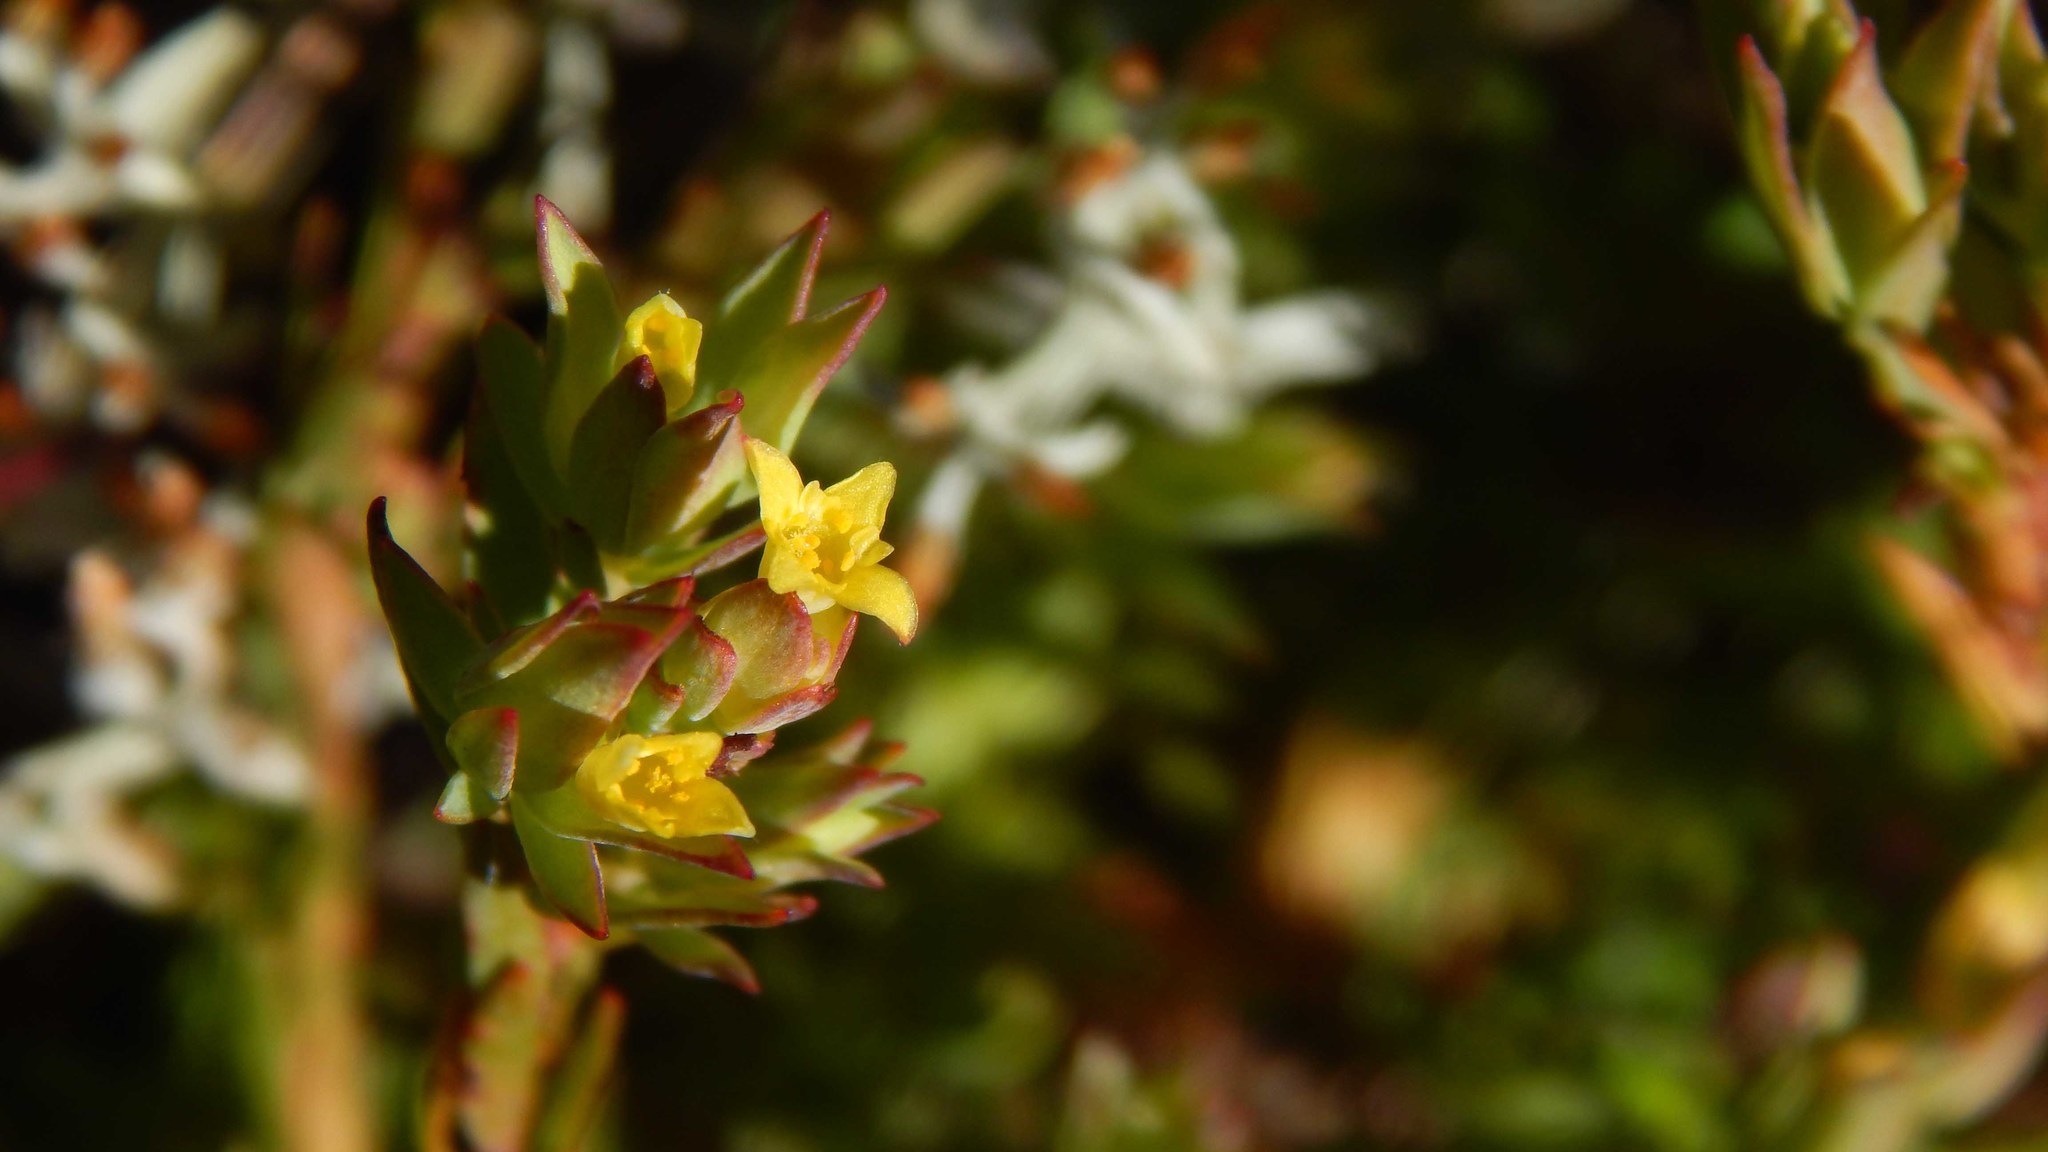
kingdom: Plantae
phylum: Tracheophyta
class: Magnoliopsida
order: Malvales
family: Thymelaeaceae
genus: Gnidia
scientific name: Gnidia juniperifolia
